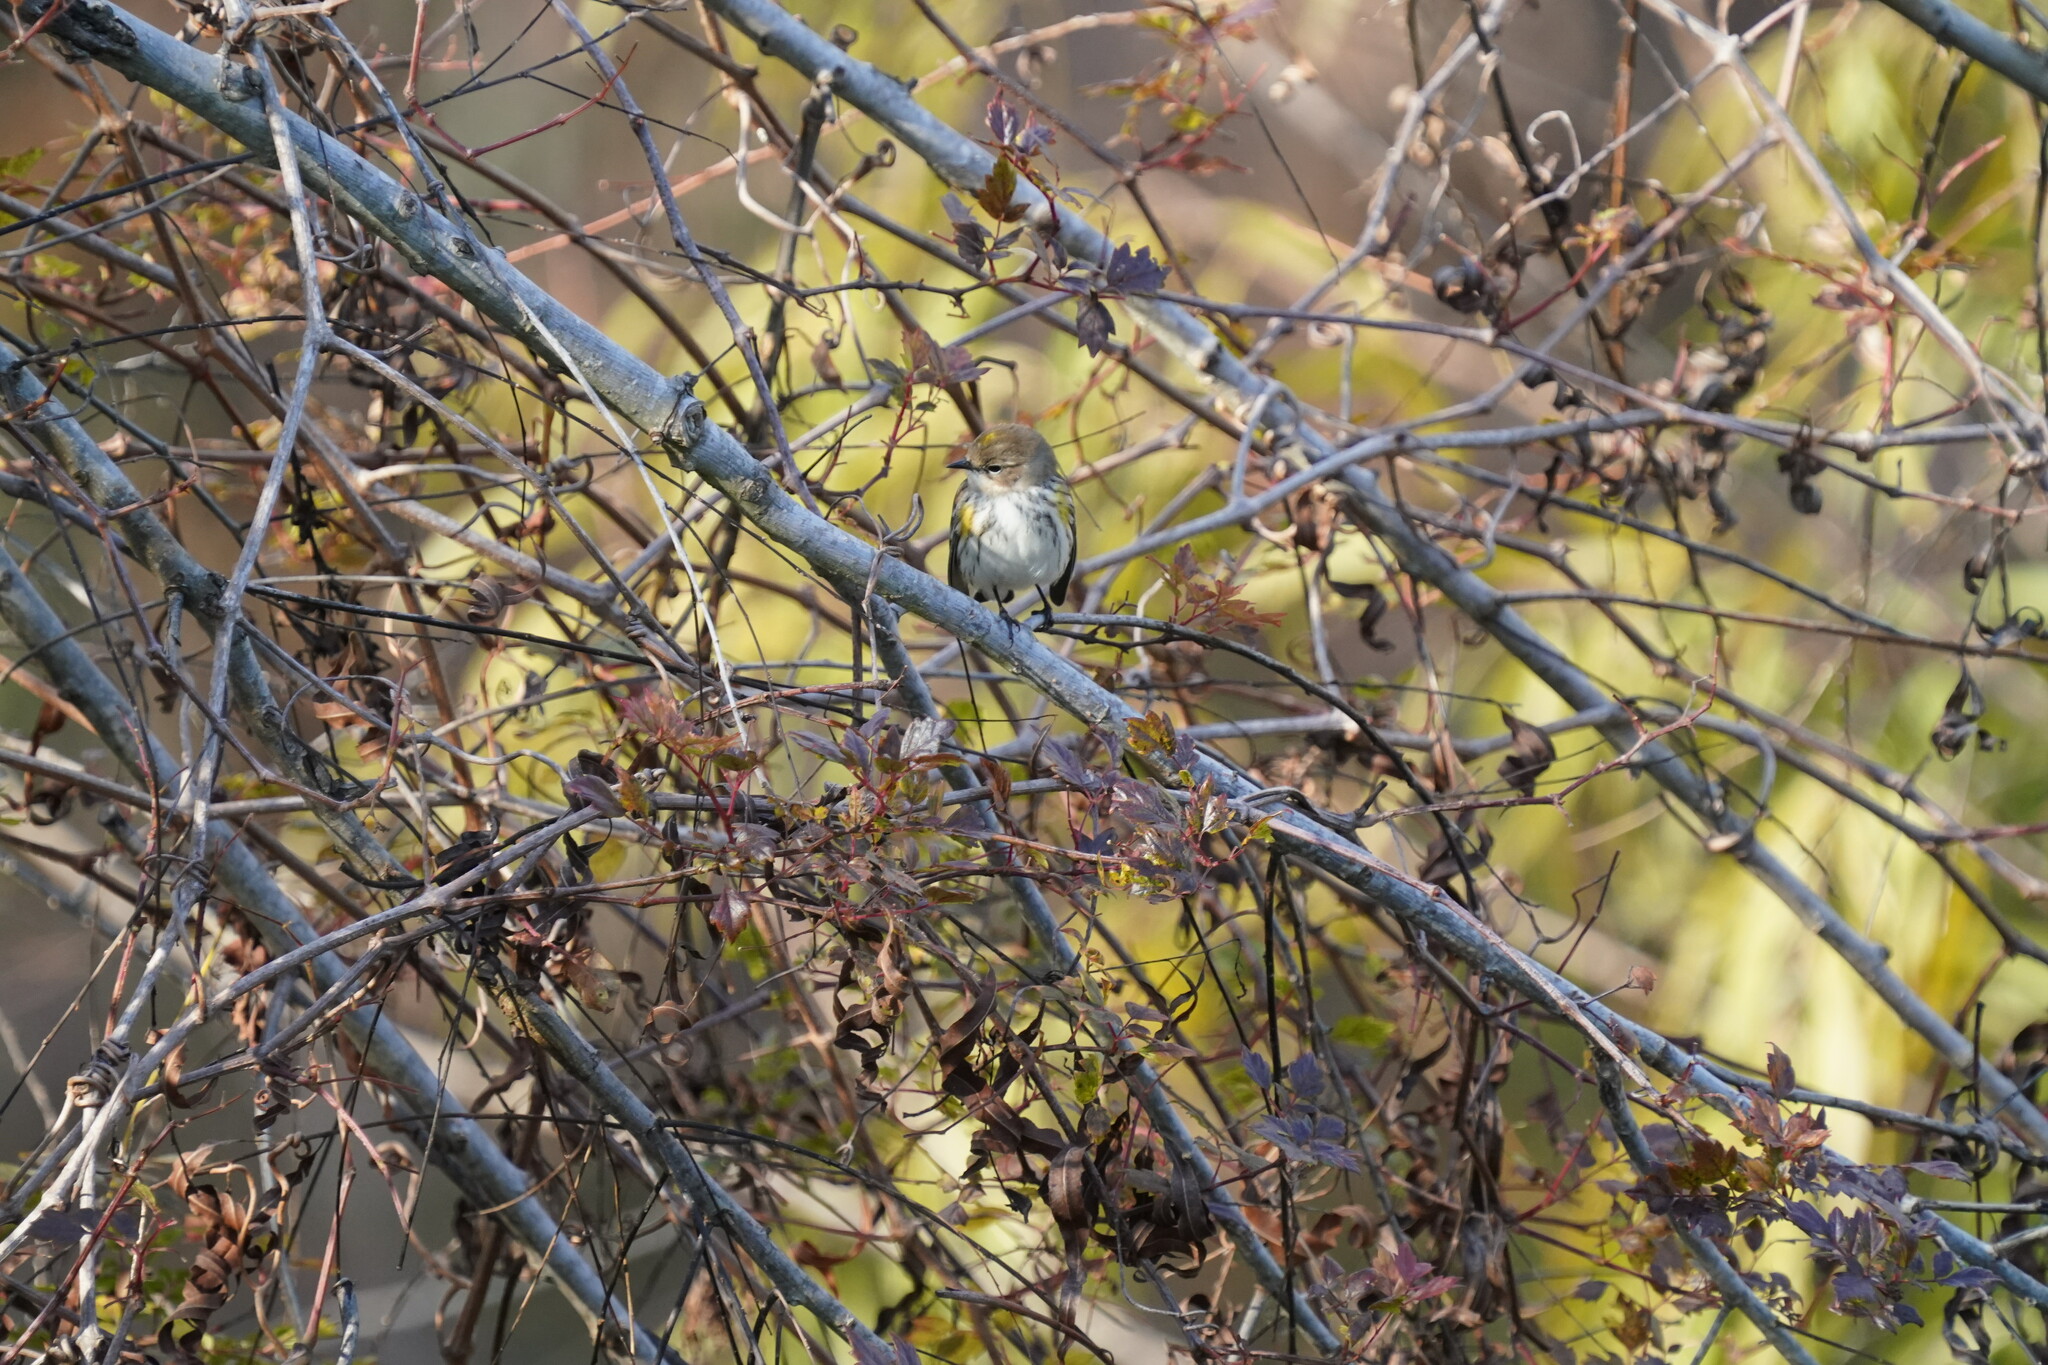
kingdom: Animalia
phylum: Chordata
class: Aves
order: Passeriformes
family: Parulidae
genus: Setophaga
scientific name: Setophaga coronata
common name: Myrtle warbler
